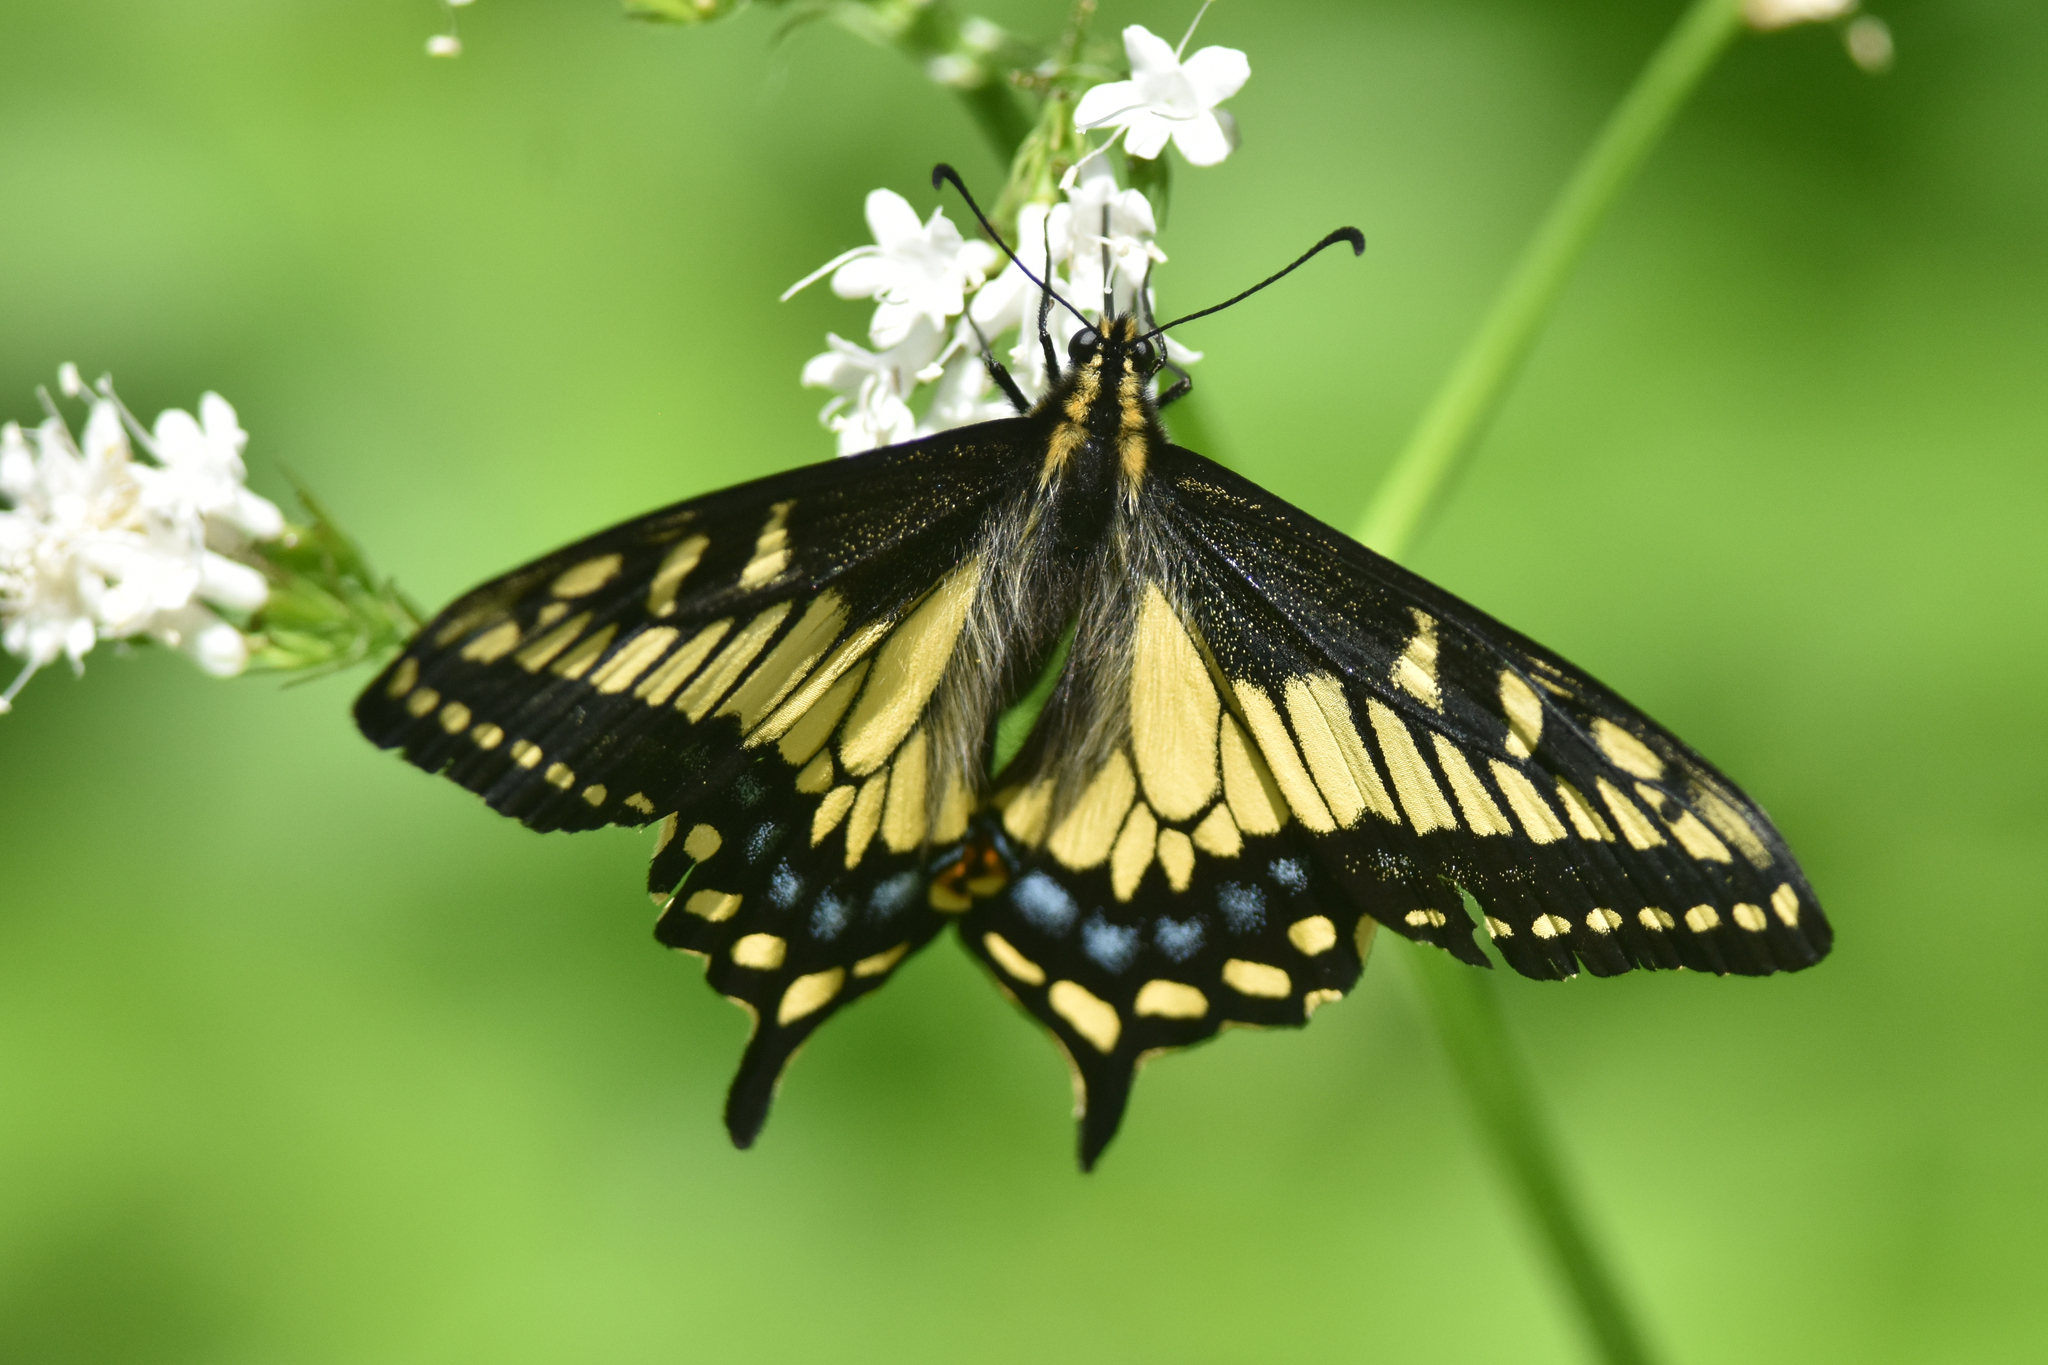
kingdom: Animalia
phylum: Arthropoda
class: Insecta
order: Lepidoptera
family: Papilionidae
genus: Papilio
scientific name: Papilio zelicaon
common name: Anise swallowtail
